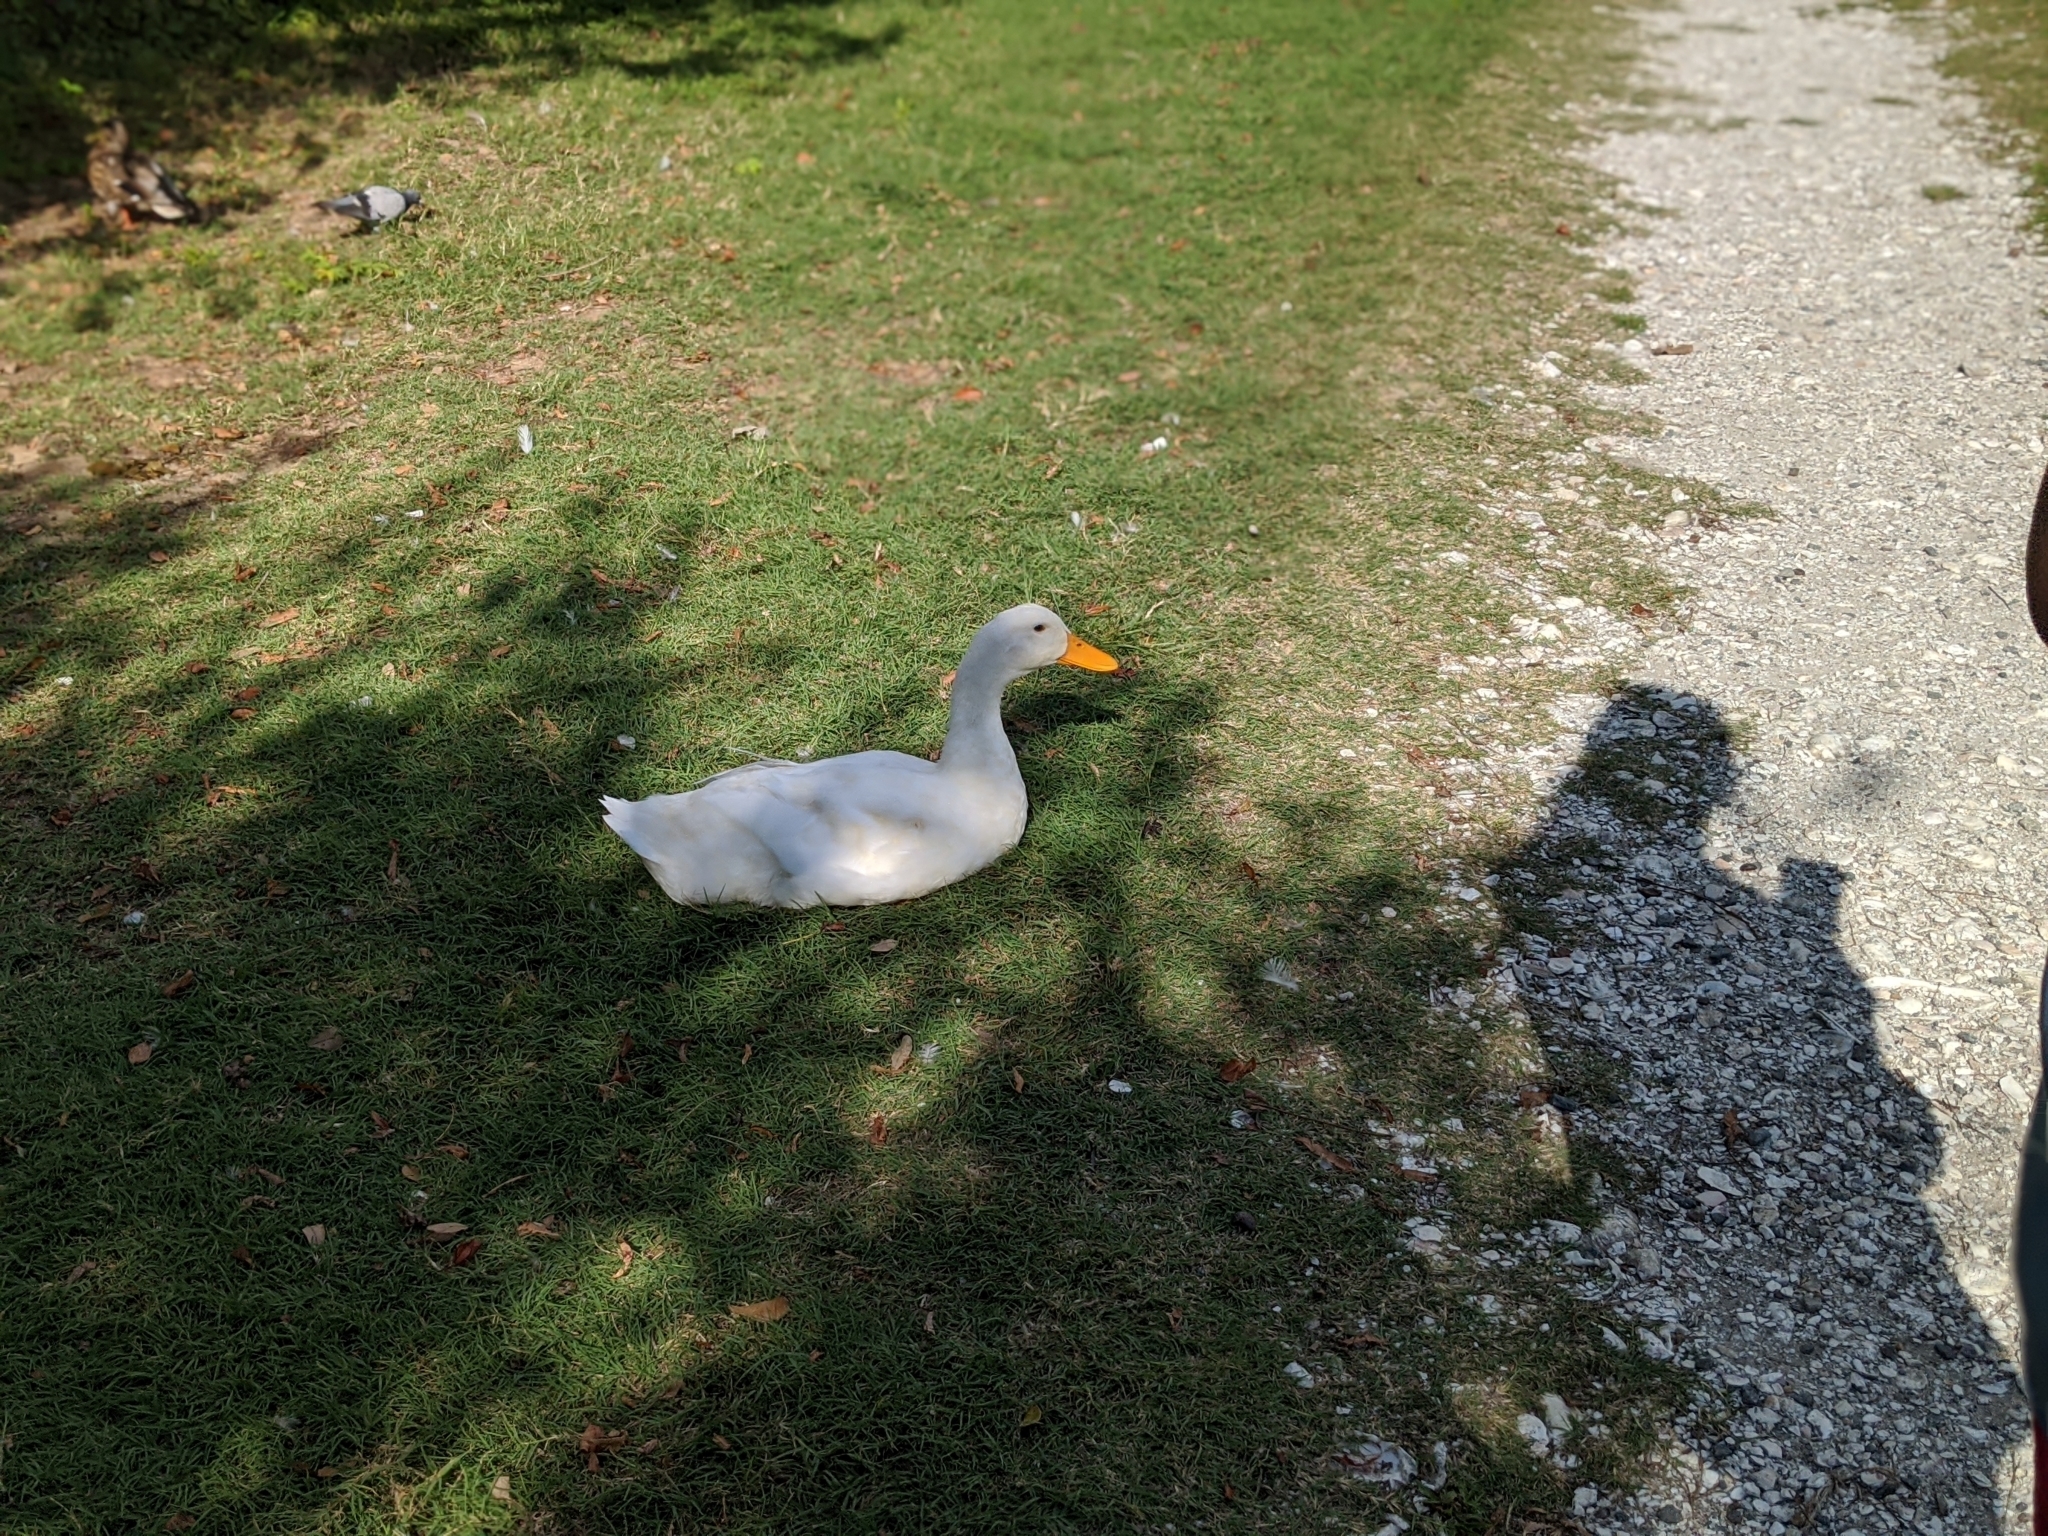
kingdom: Animalia
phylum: Chordata
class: Aves
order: Anseriformes
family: Anatidae
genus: Anas
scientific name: Anas platyrhynchos
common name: Mallard
